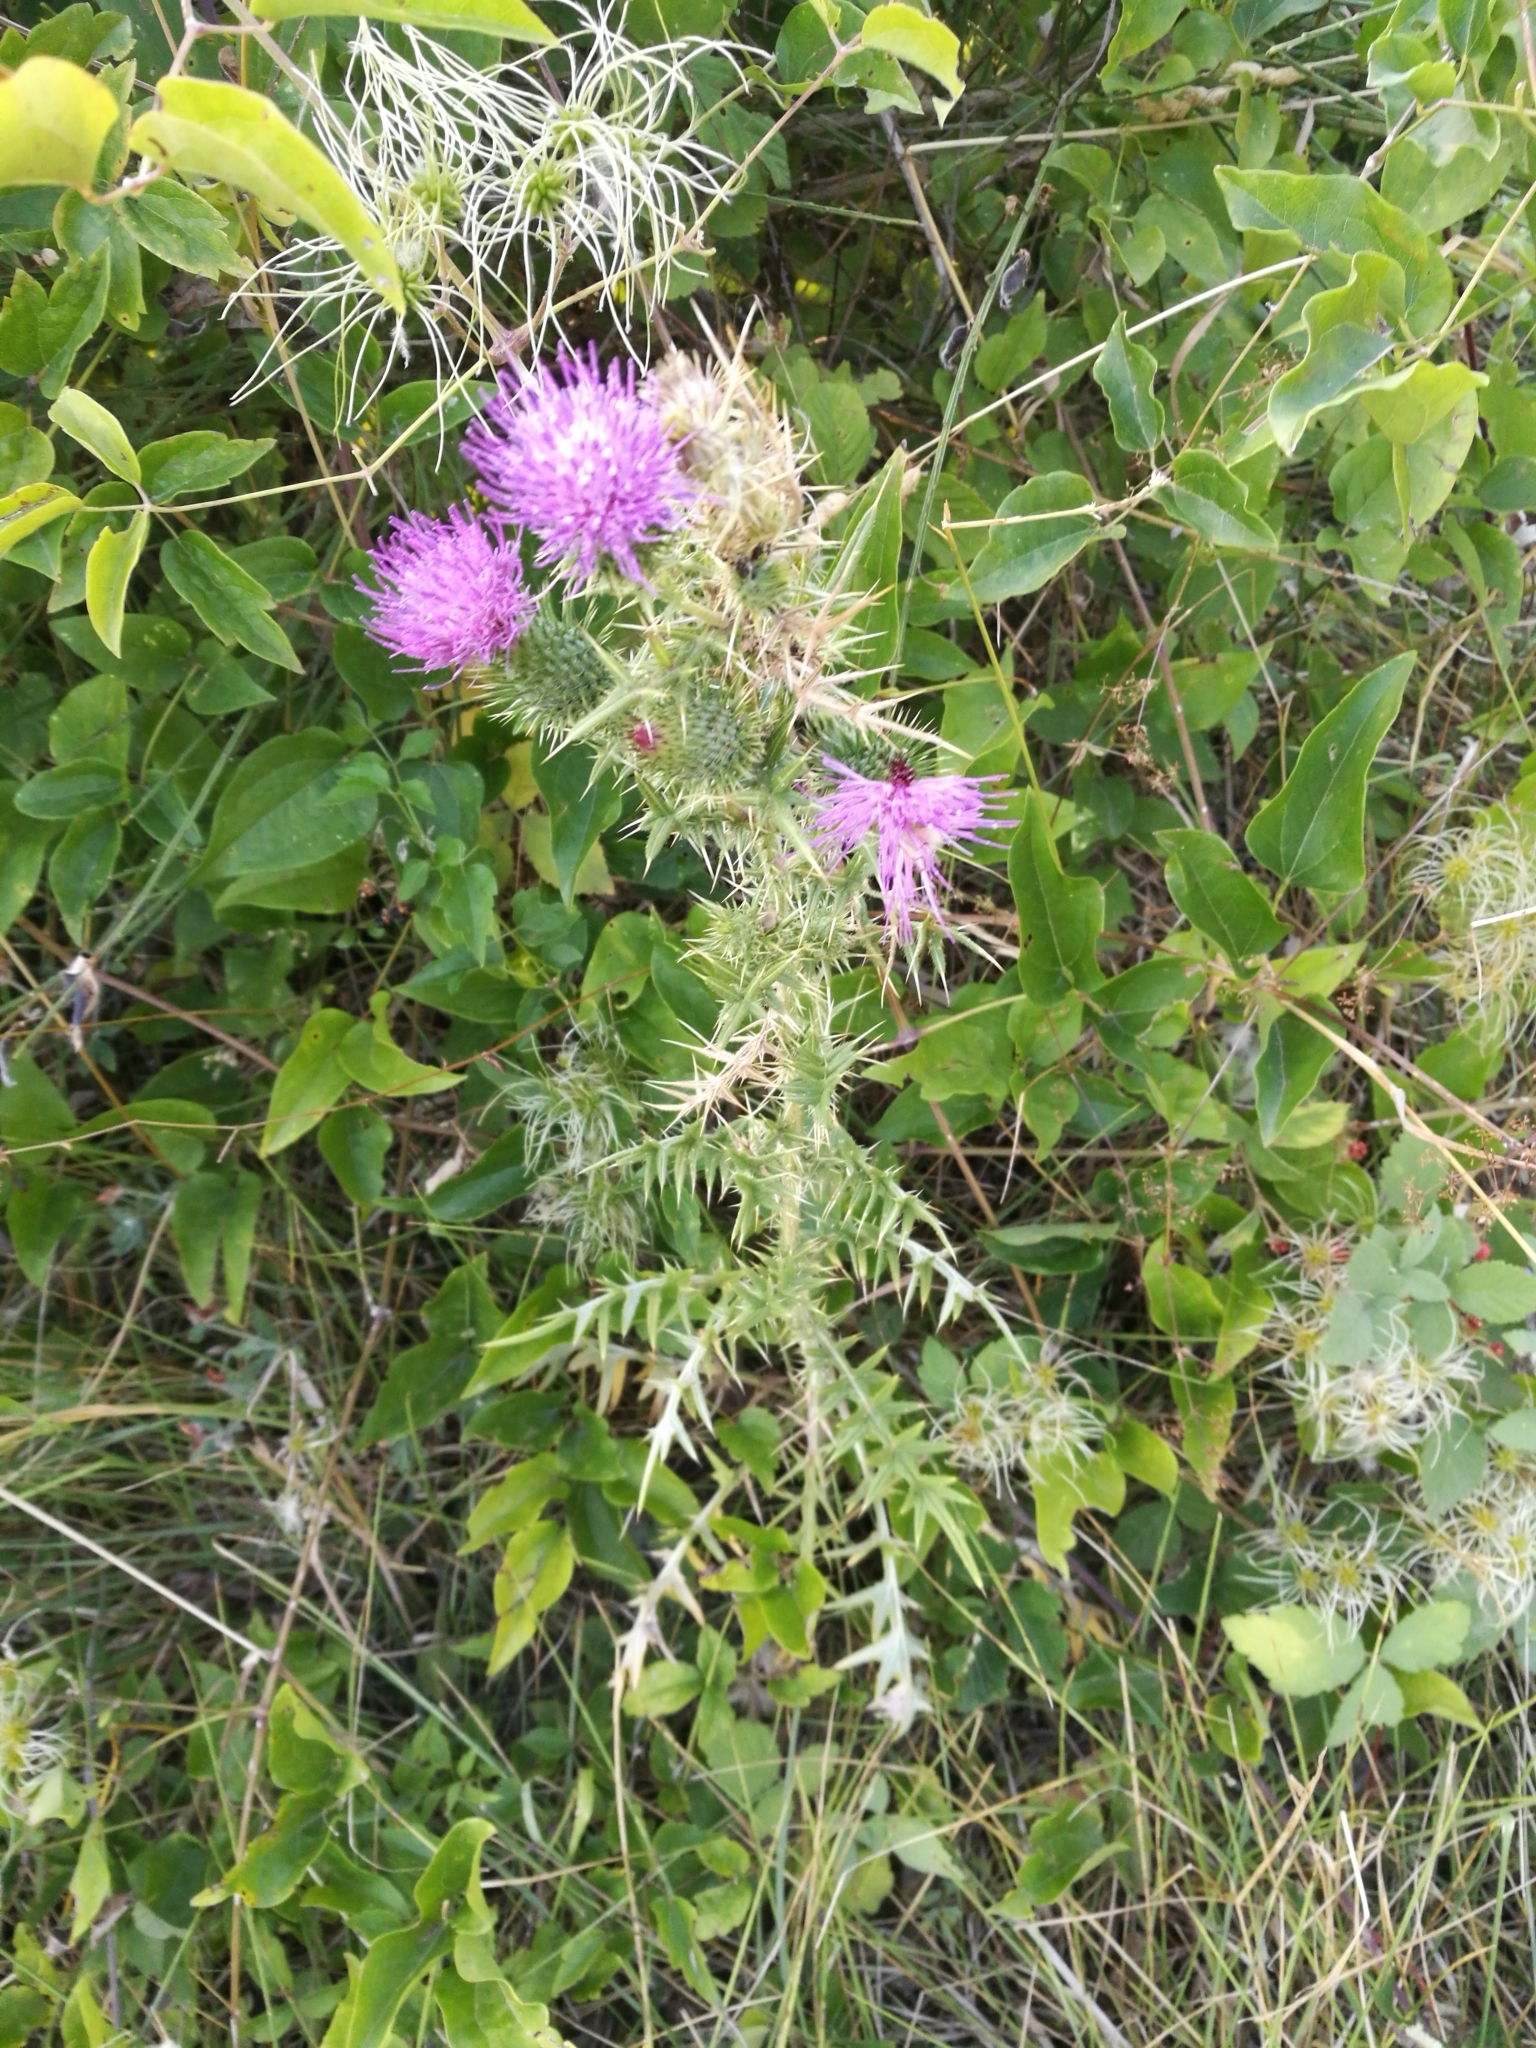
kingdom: Plantae
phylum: Tracheophyta
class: Magnoliopsida
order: Asterales
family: Asteraceae
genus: Cirsium
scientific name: Cirsium vulgare
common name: Bull thistle
